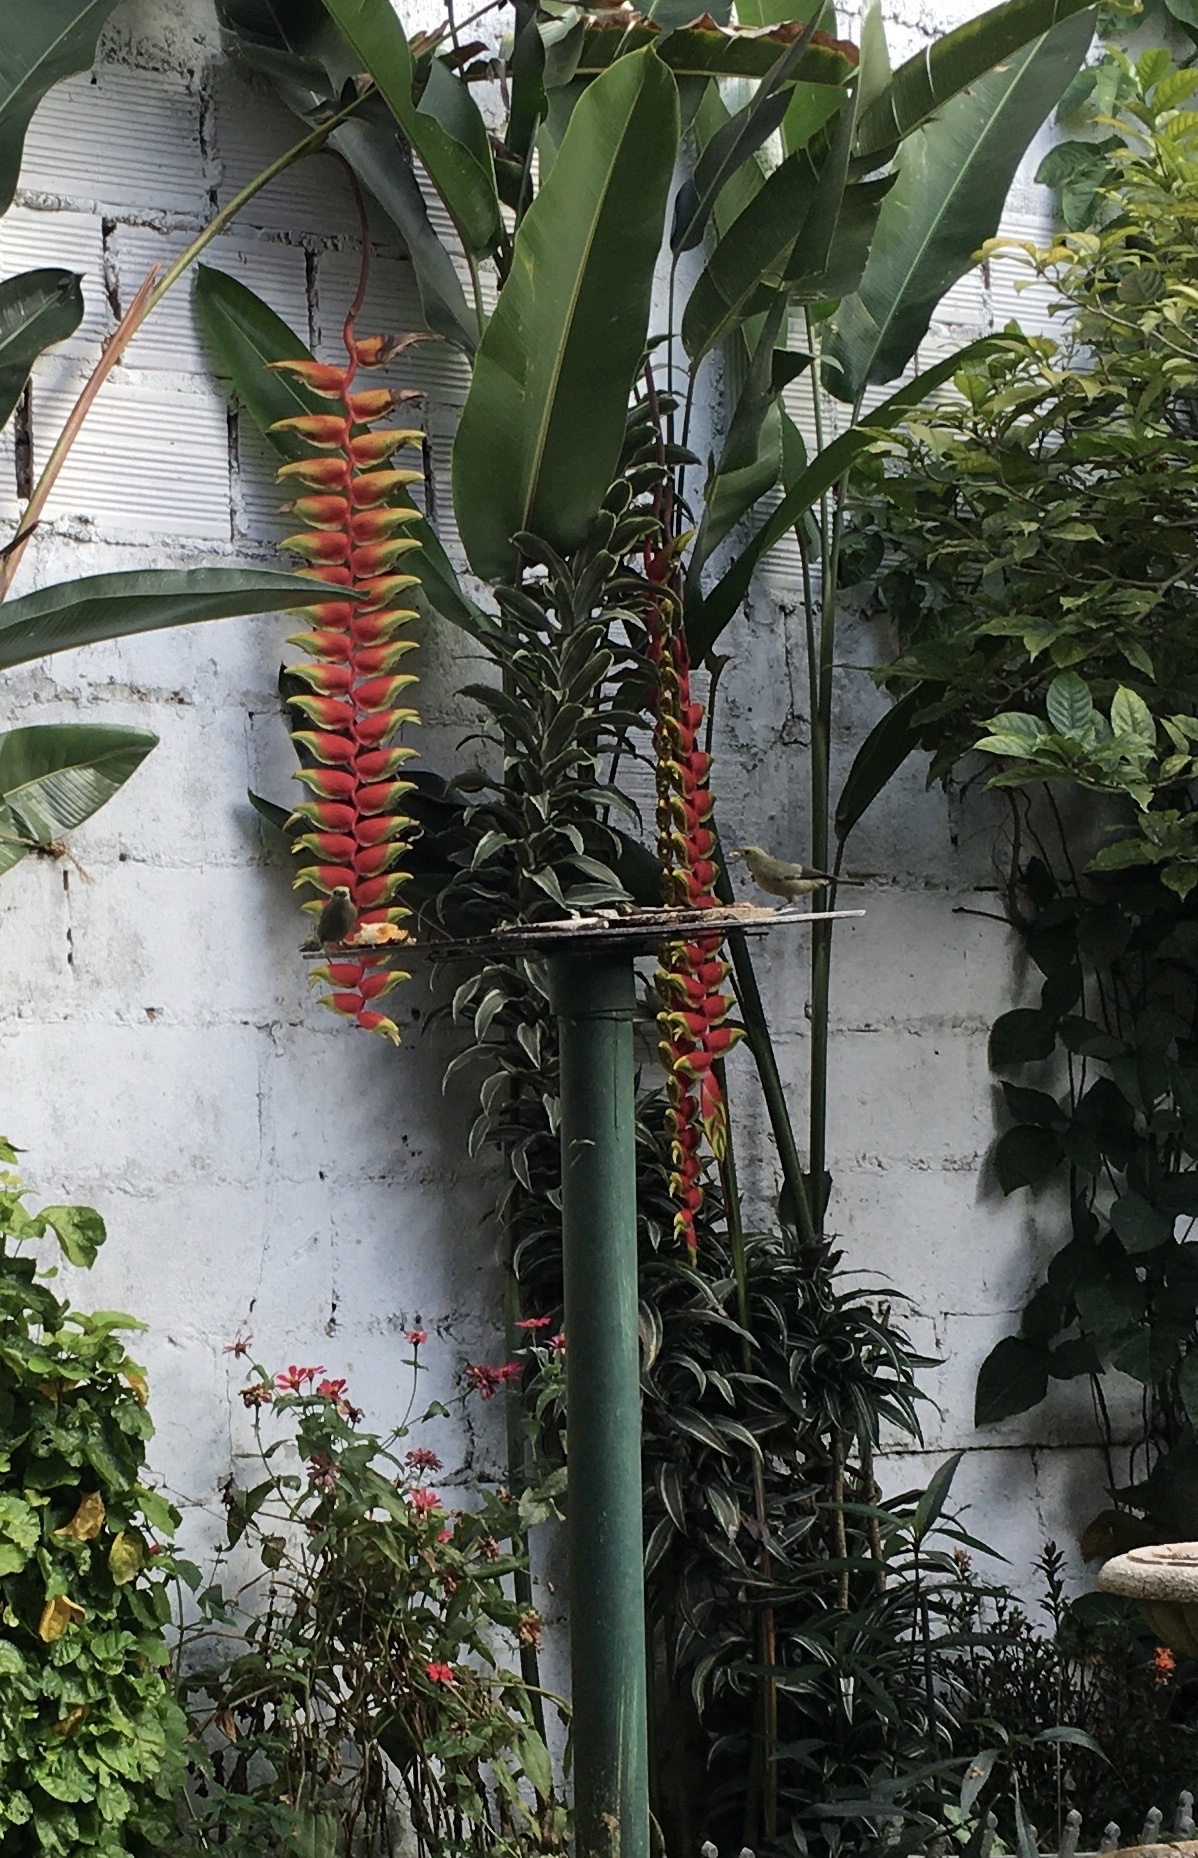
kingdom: Animalia
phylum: Chordata
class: Aves
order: Passeriformes
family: Thraupidae
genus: Thraupis
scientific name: Thraupis palmarum
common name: Palm tanager
